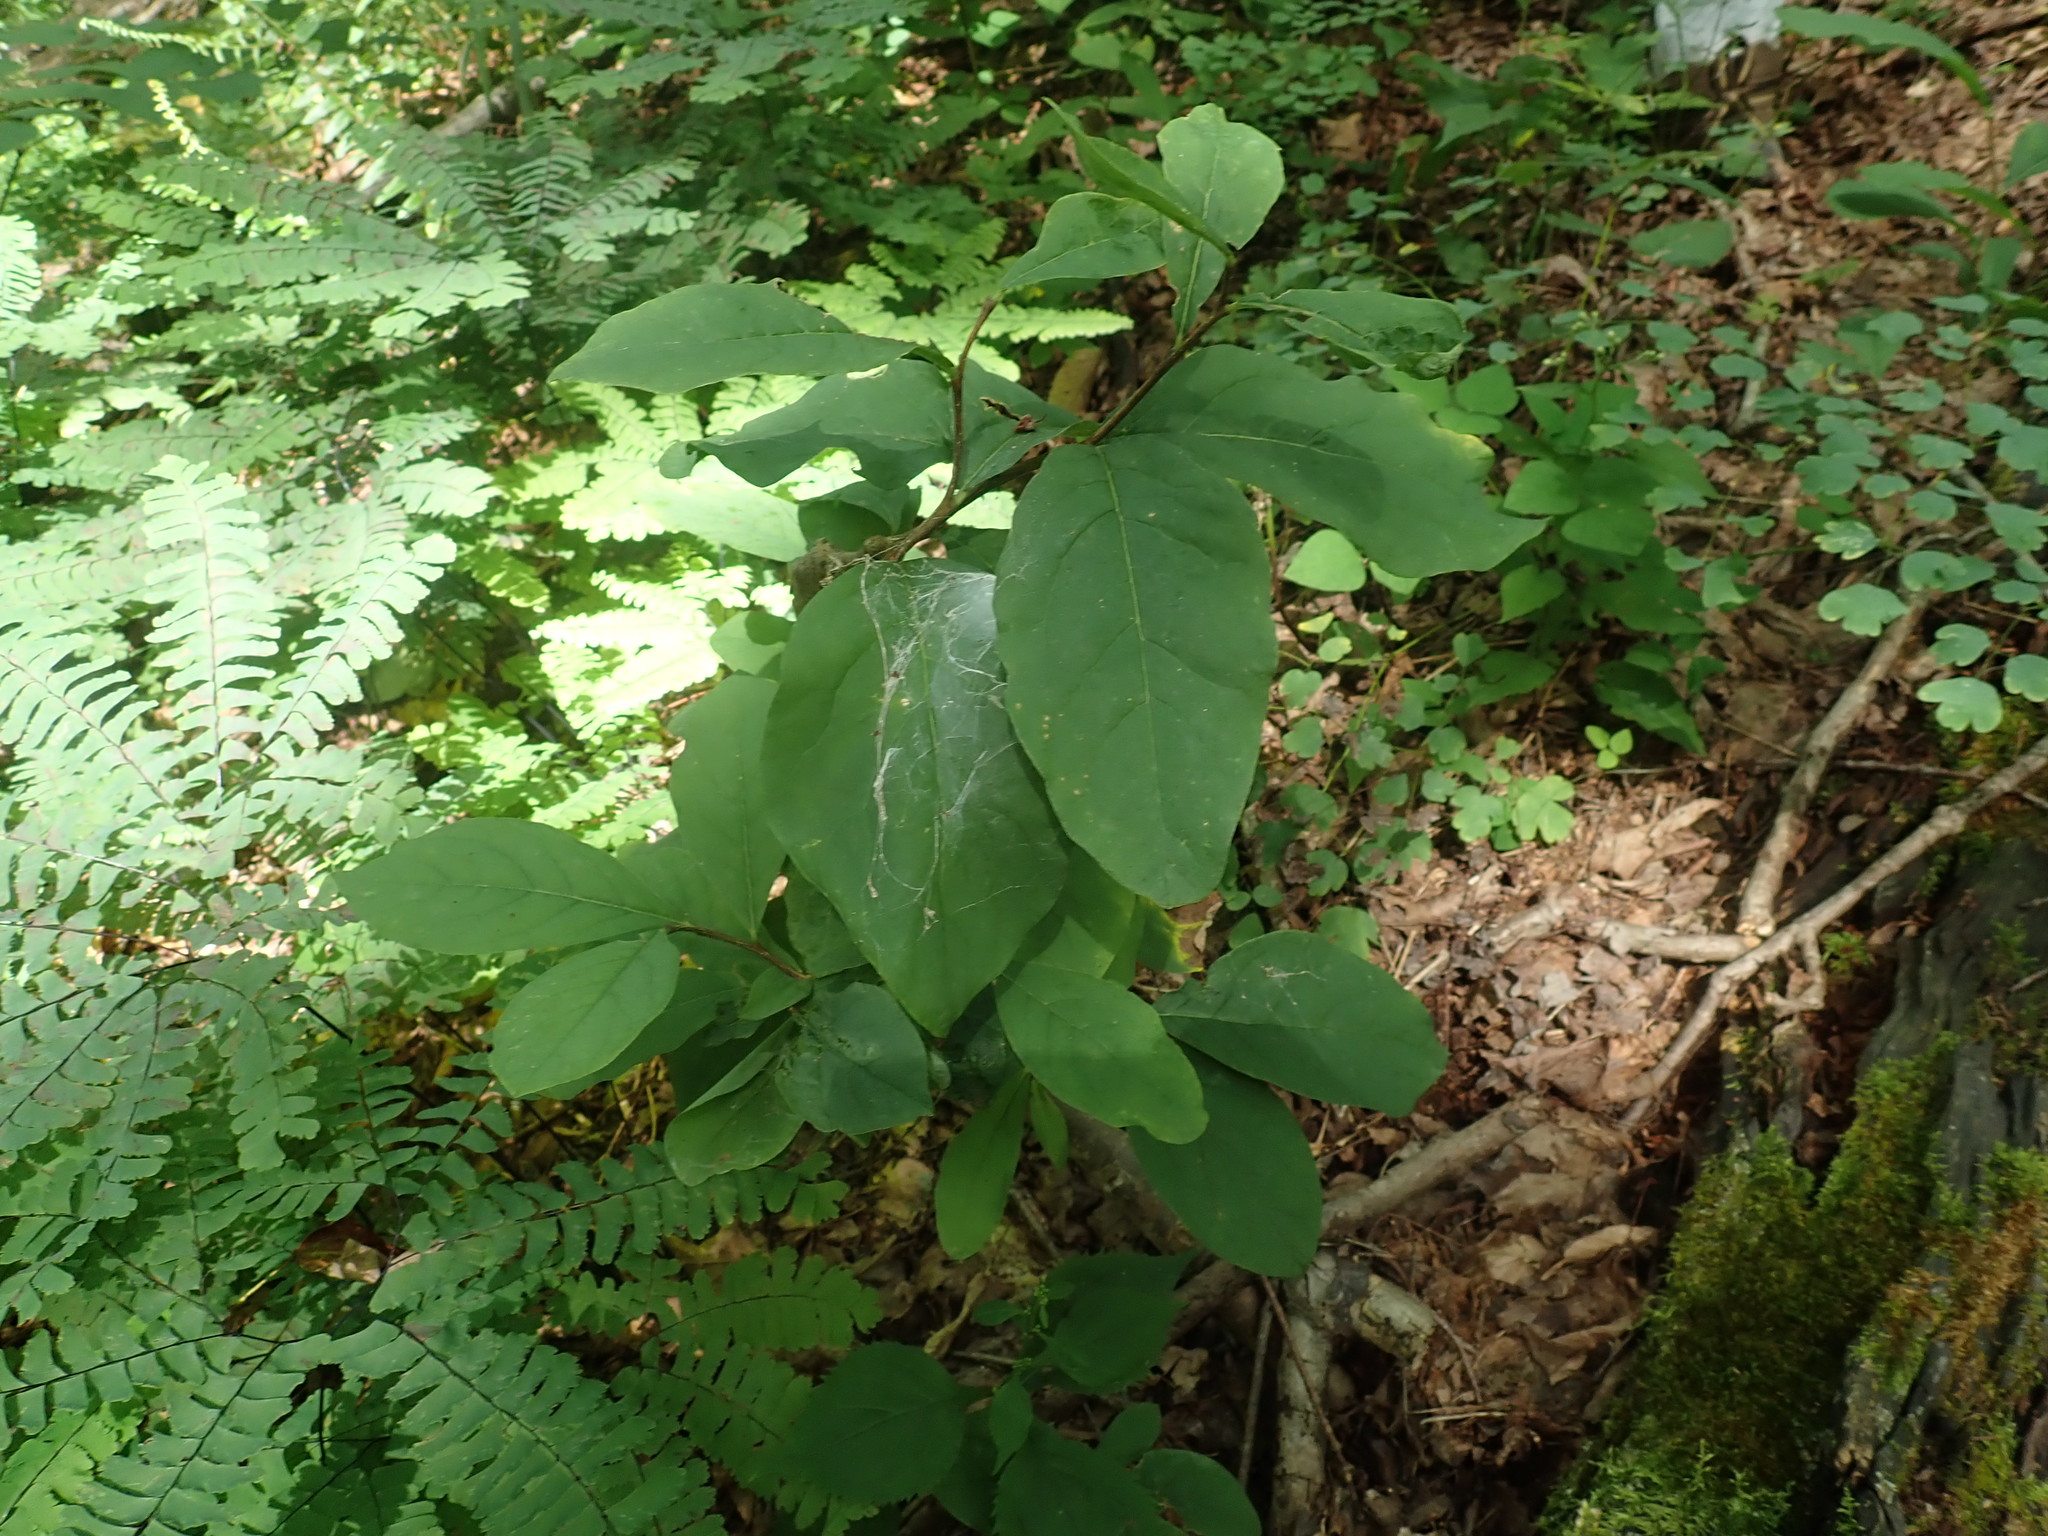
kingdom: Plantae
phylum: Tracheophyta
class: Magnoliopsida
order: Malvales
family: Thymelaeaceae
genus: Dirca
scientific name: Dirca palustris
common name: Leatherwood
